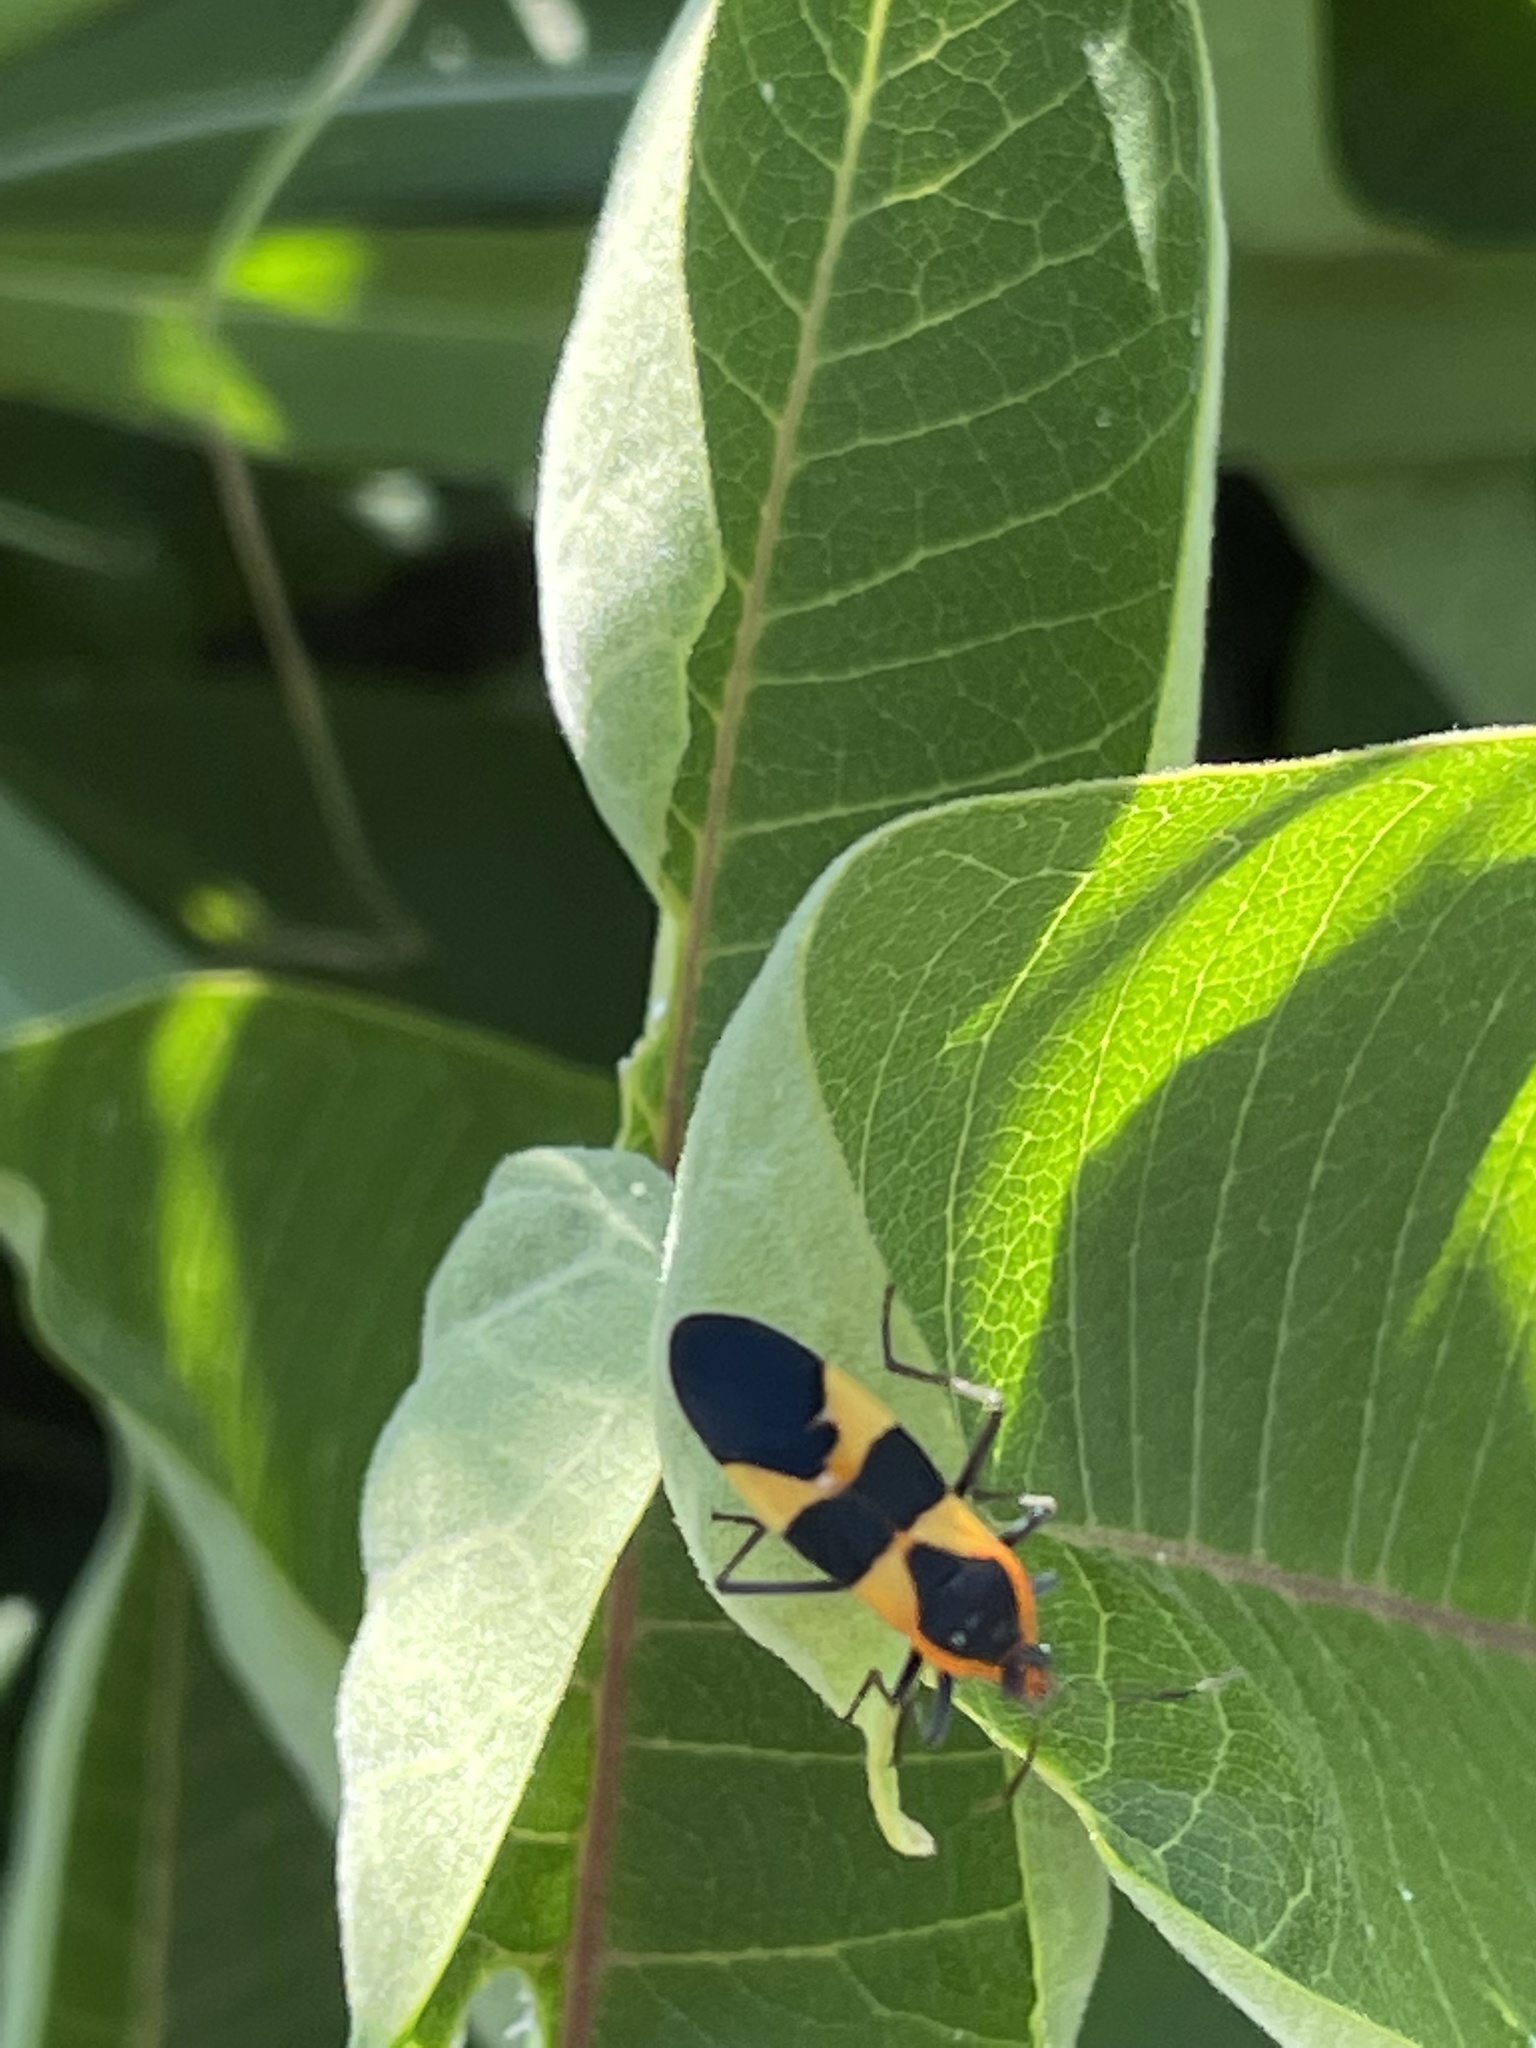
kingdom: Animalia
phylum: Arthropoda
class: Insecta
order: Hemiptera
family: Lygaeidae
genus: Oncopeltus
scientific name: Oncopeltus fasciatus
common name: Large milkweed bug
